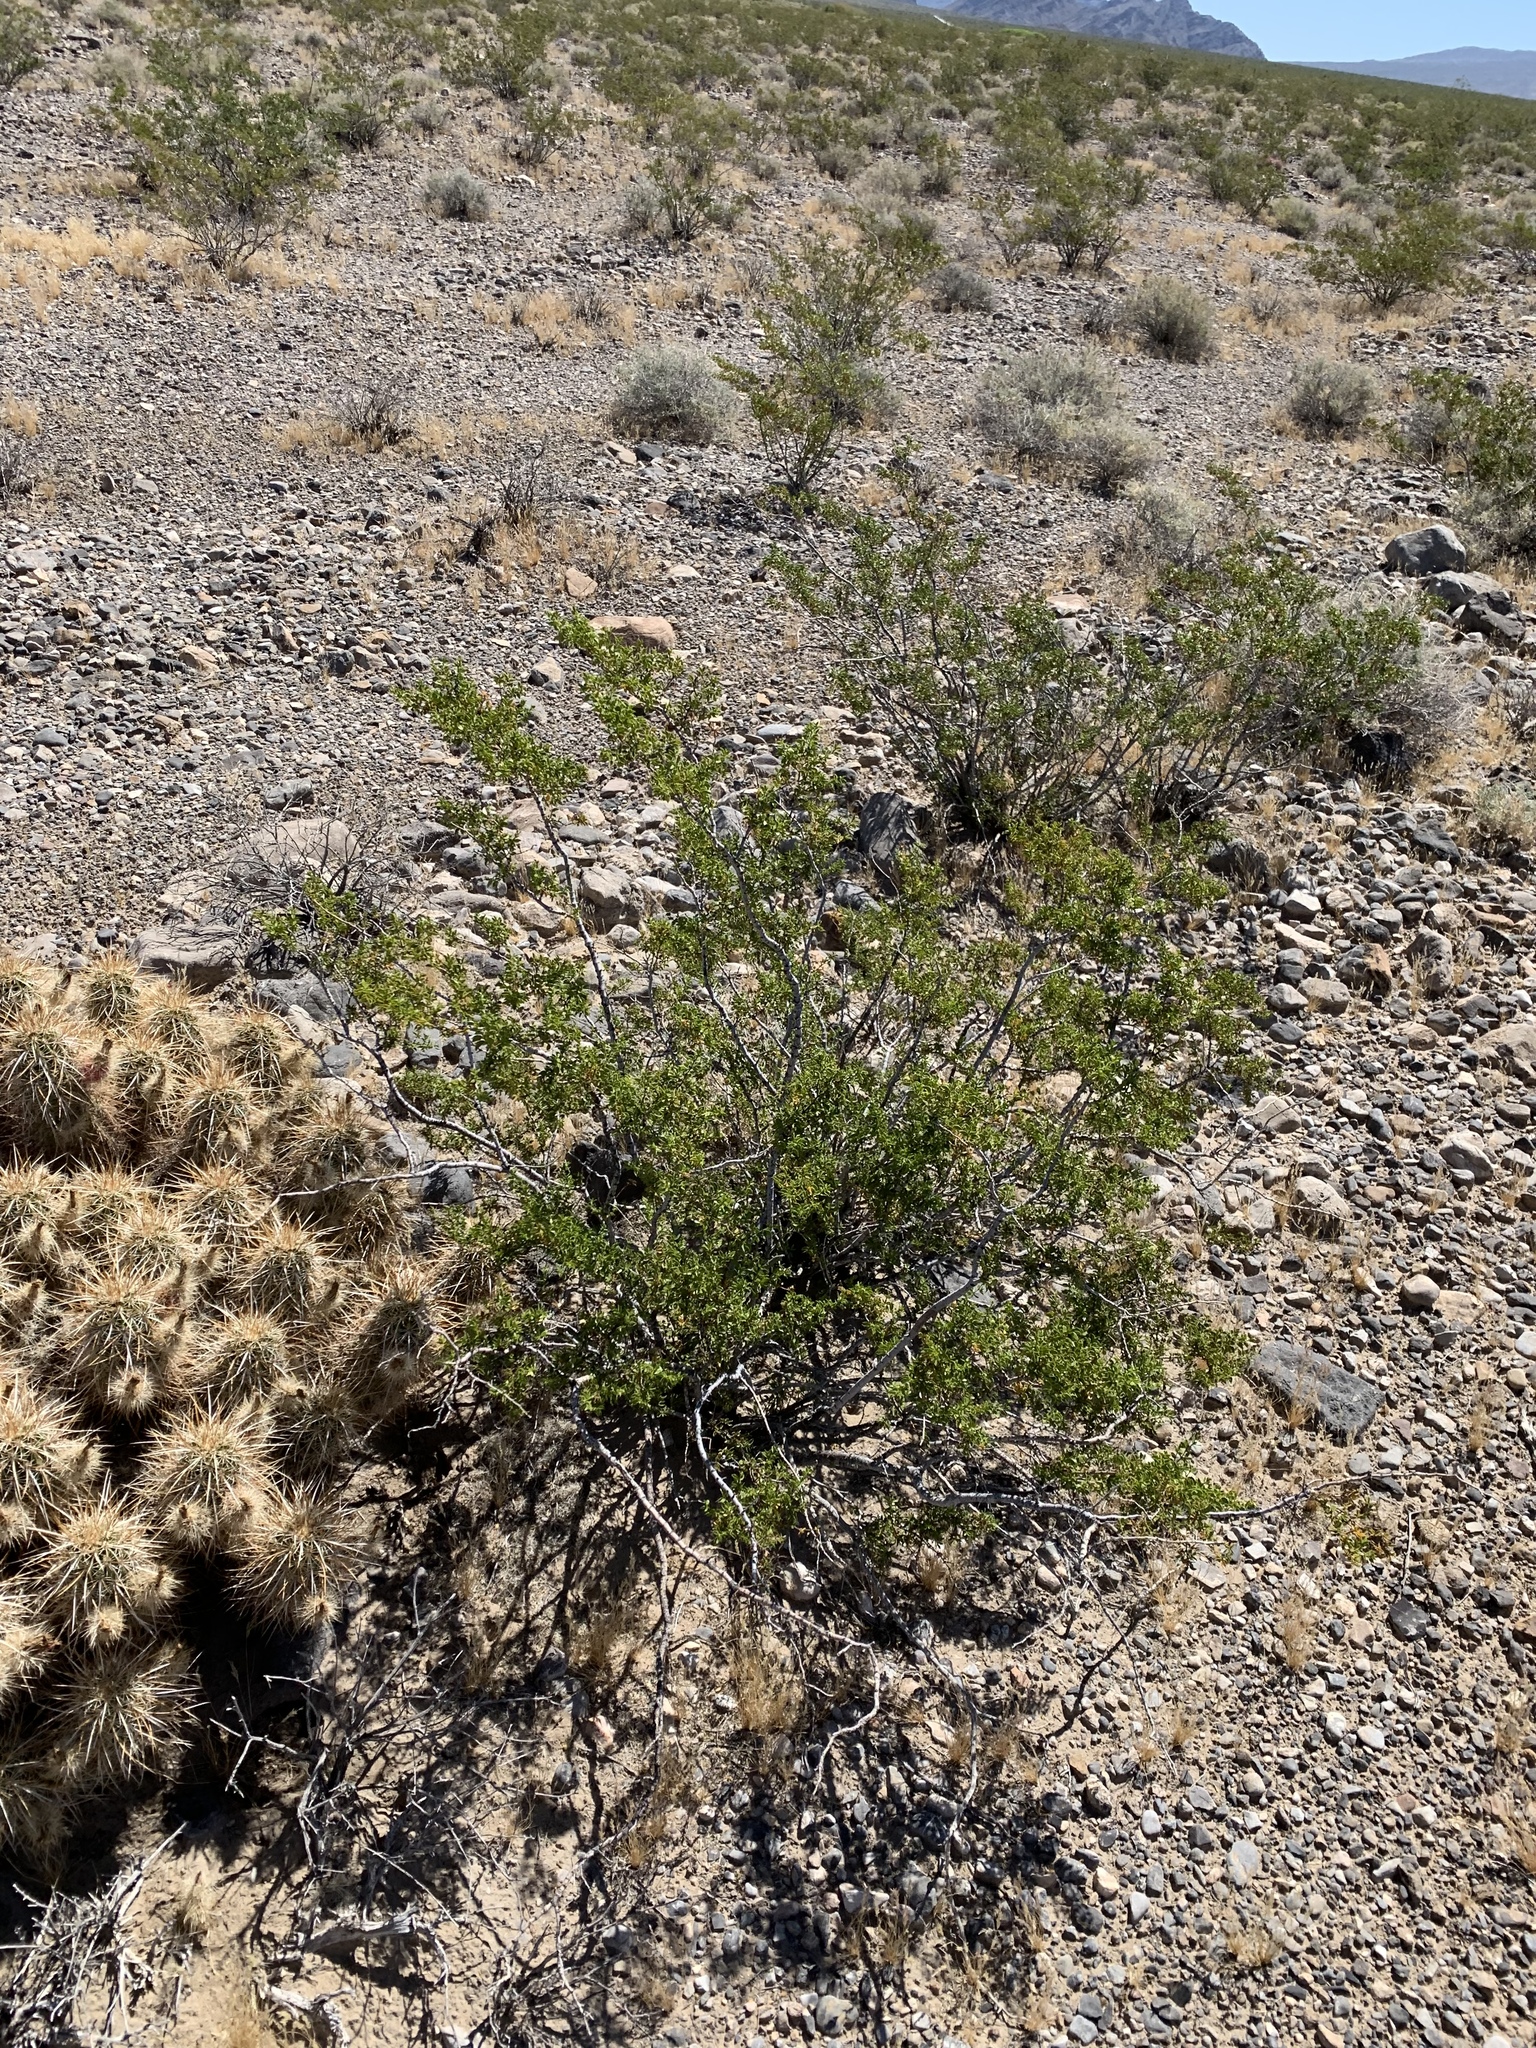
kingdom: Plantae
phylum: Tracheophyta
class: Magnoliopsida
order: Zygophyllales
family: Zygophyllaceae
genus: Larrea
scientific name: Larrea tridentata
